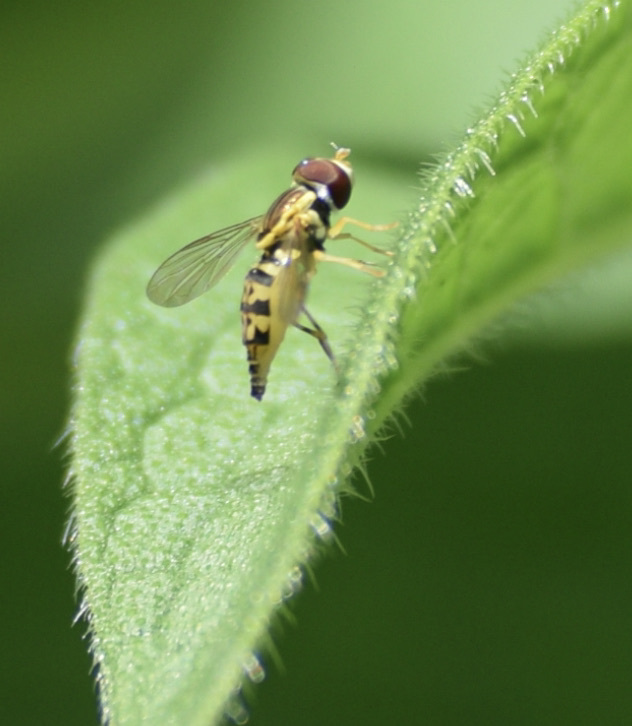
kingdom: Animalia
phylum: Arthropoda
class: Insecta
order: Diptera
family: Syrphidae
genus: Toxomerus
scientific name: Toxomerus geminatus
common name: Eastern calligrapher
